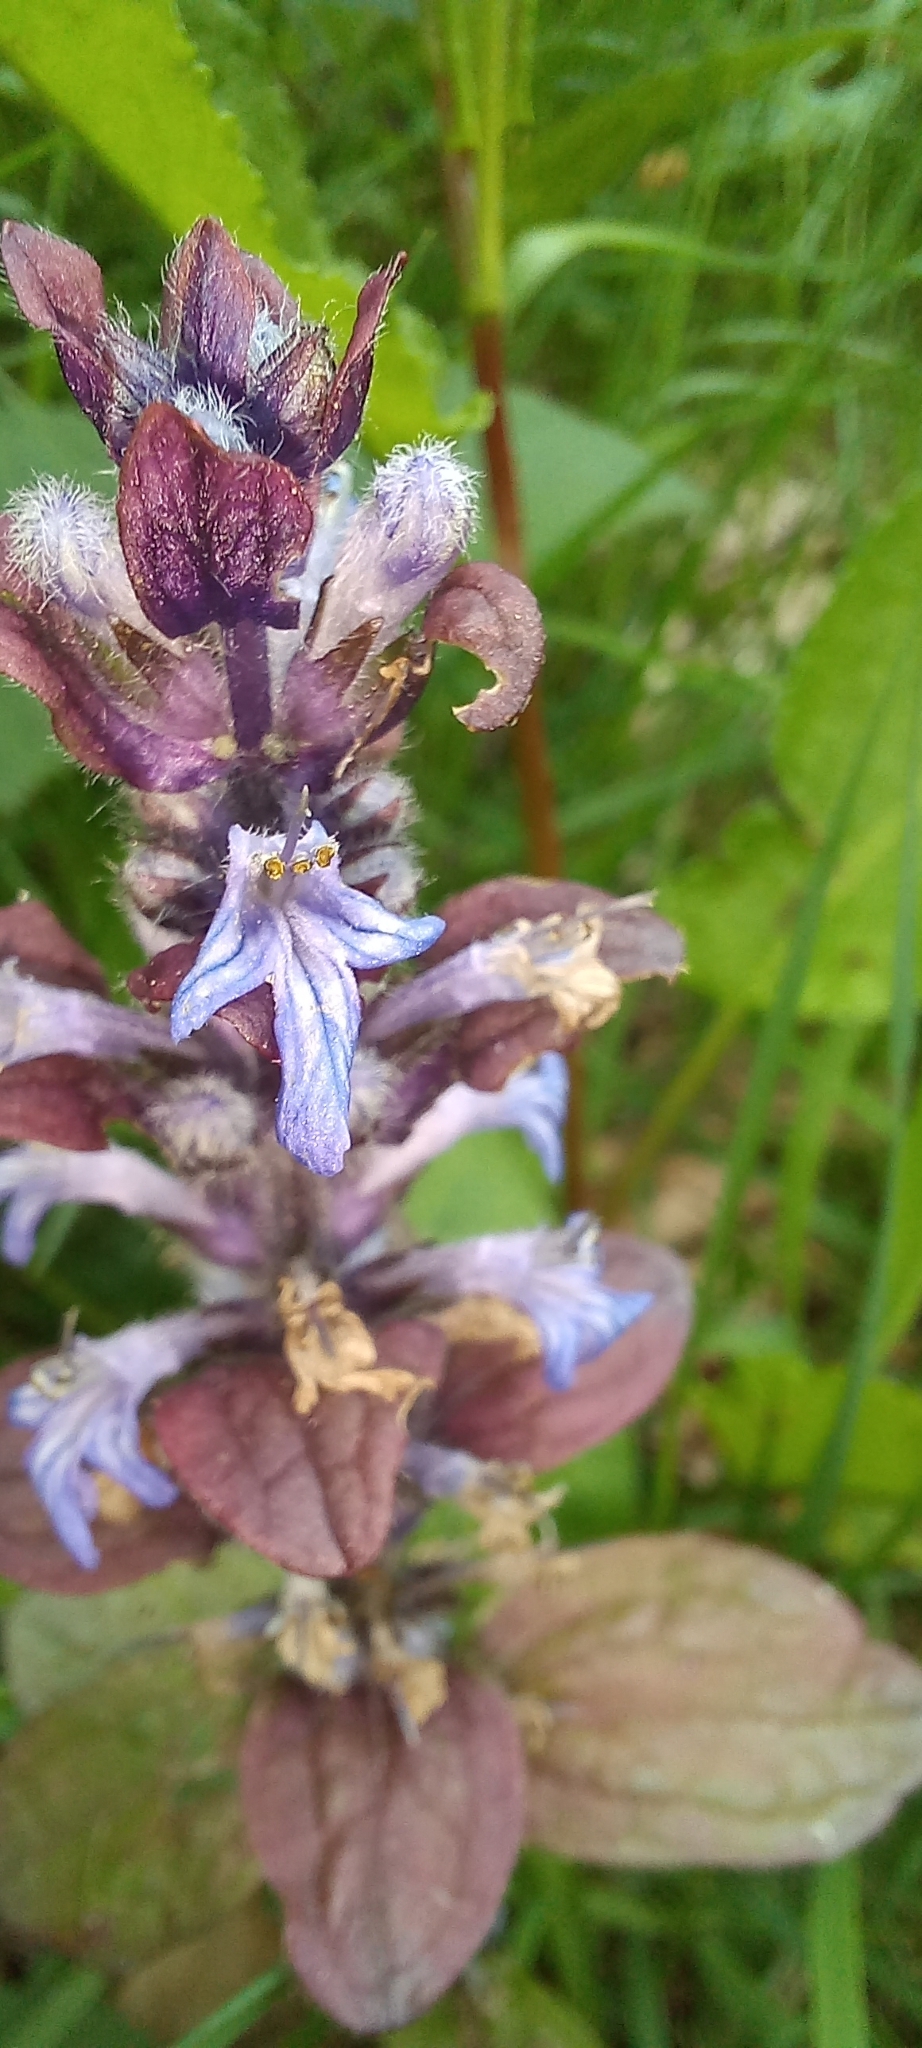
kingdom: Plantae
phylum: Tracheophyta
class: Magnoliopsida
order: Lamiales
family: Lamiaceae
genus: Ajuga
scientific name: Ajuga reptans
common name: Bugle
